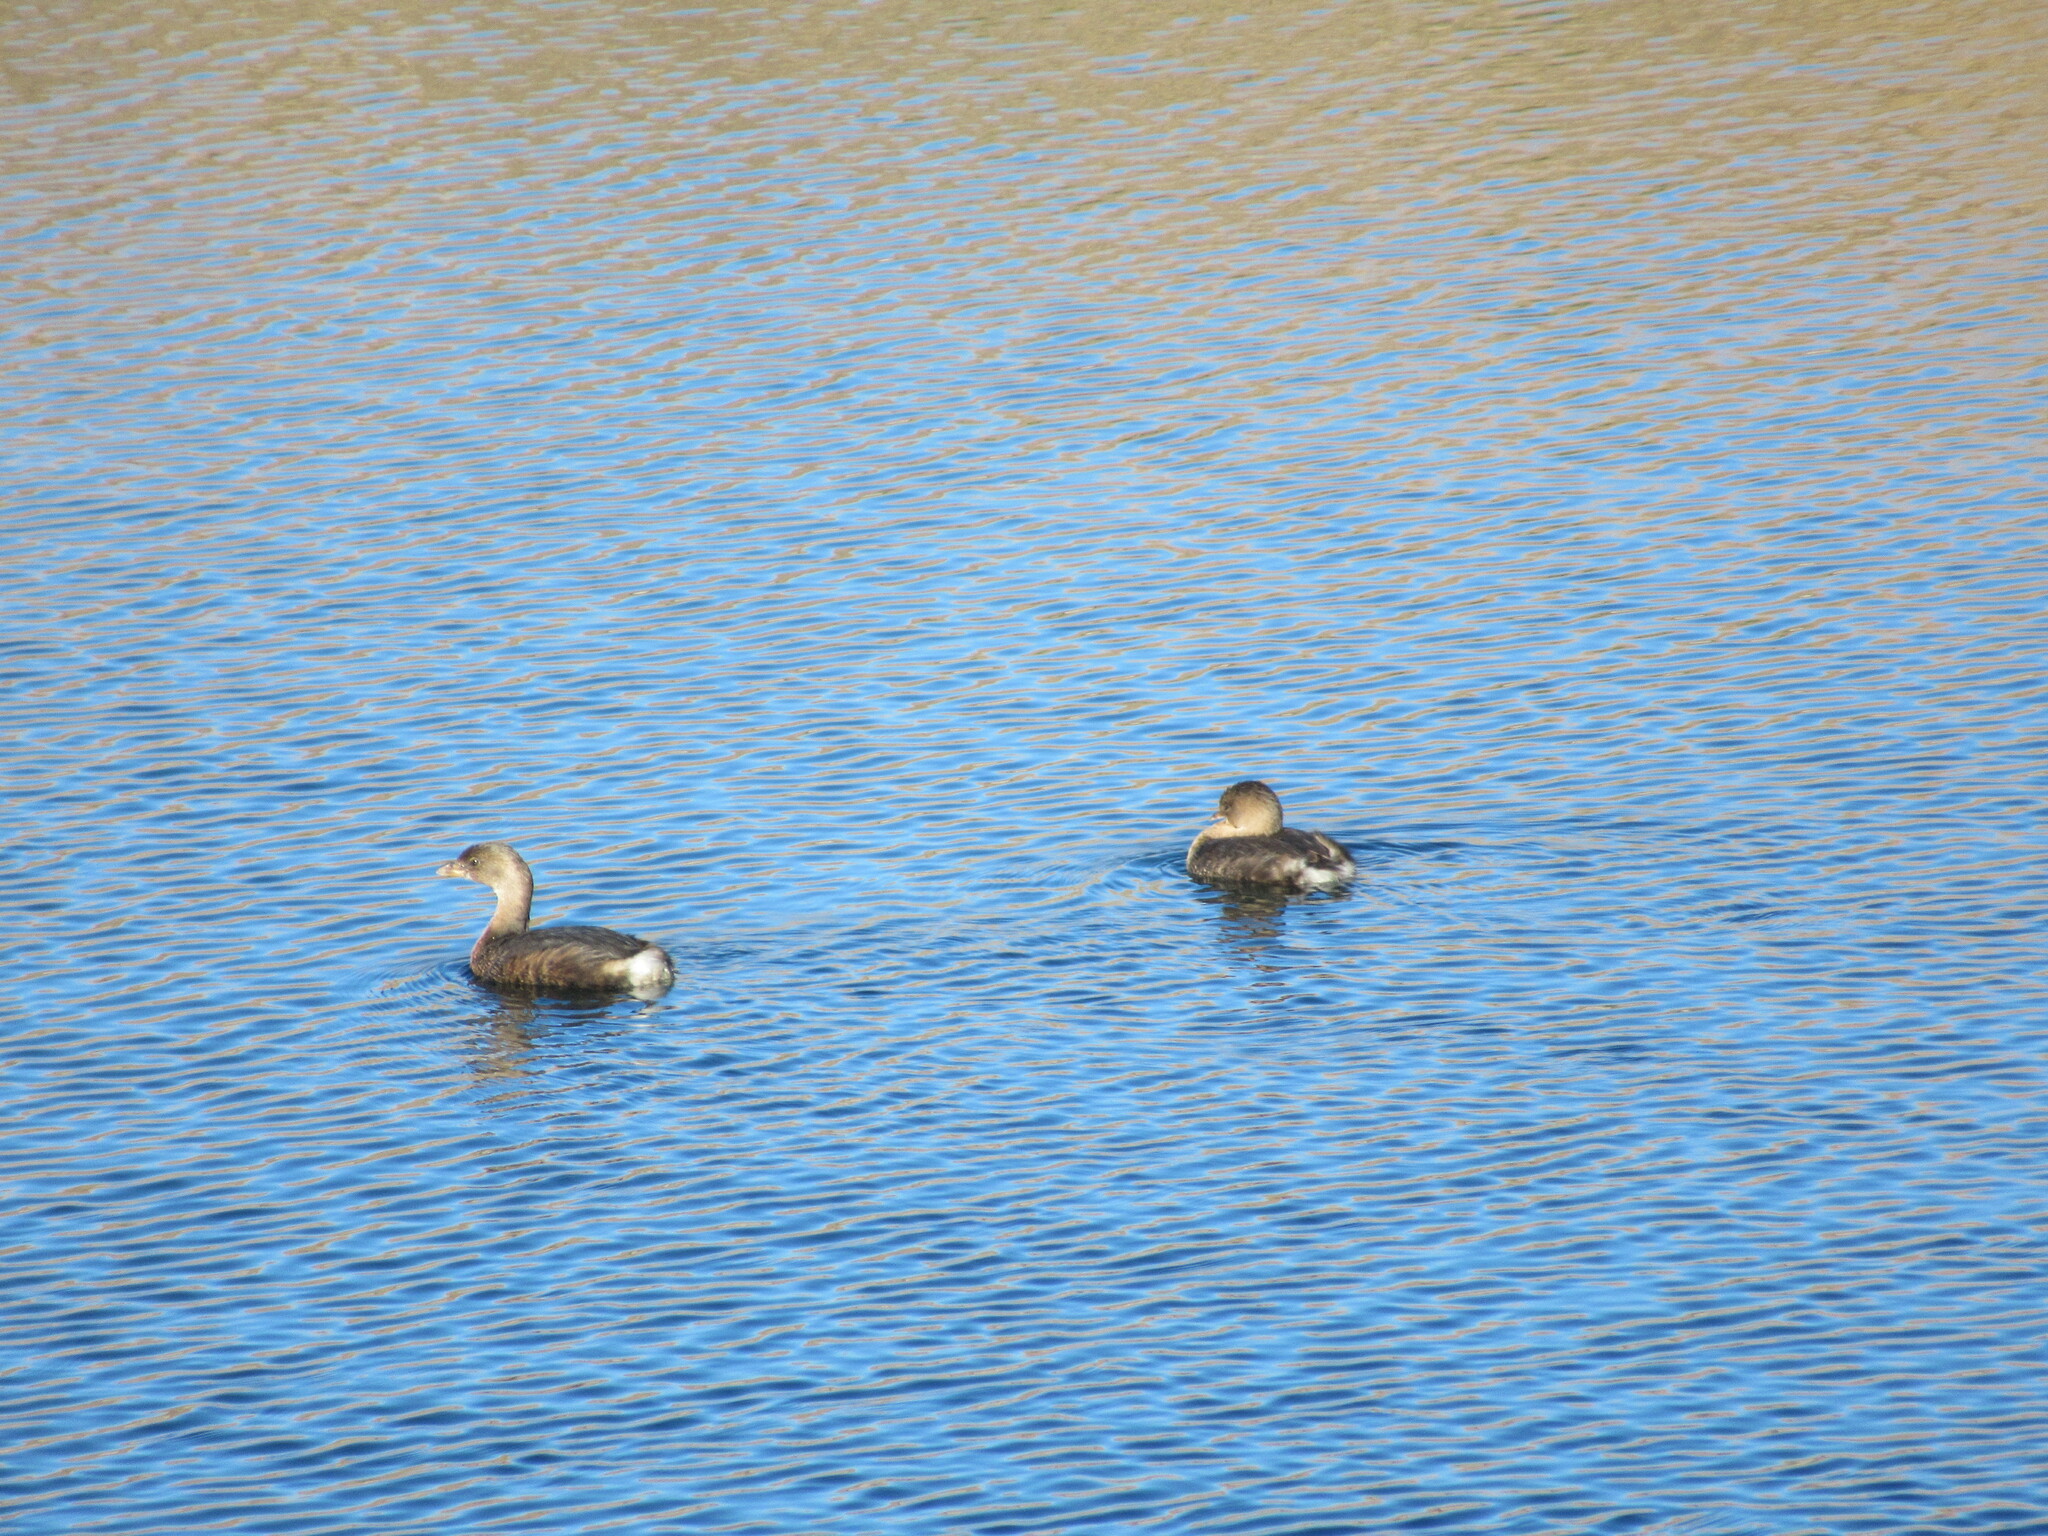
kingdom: Animalia
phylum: Chordata
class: Aves
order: Podicipediformes
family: Podicipedidae
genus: Podilymbus
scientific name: Podilymbus podiceps
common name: Pied-billed grebe
